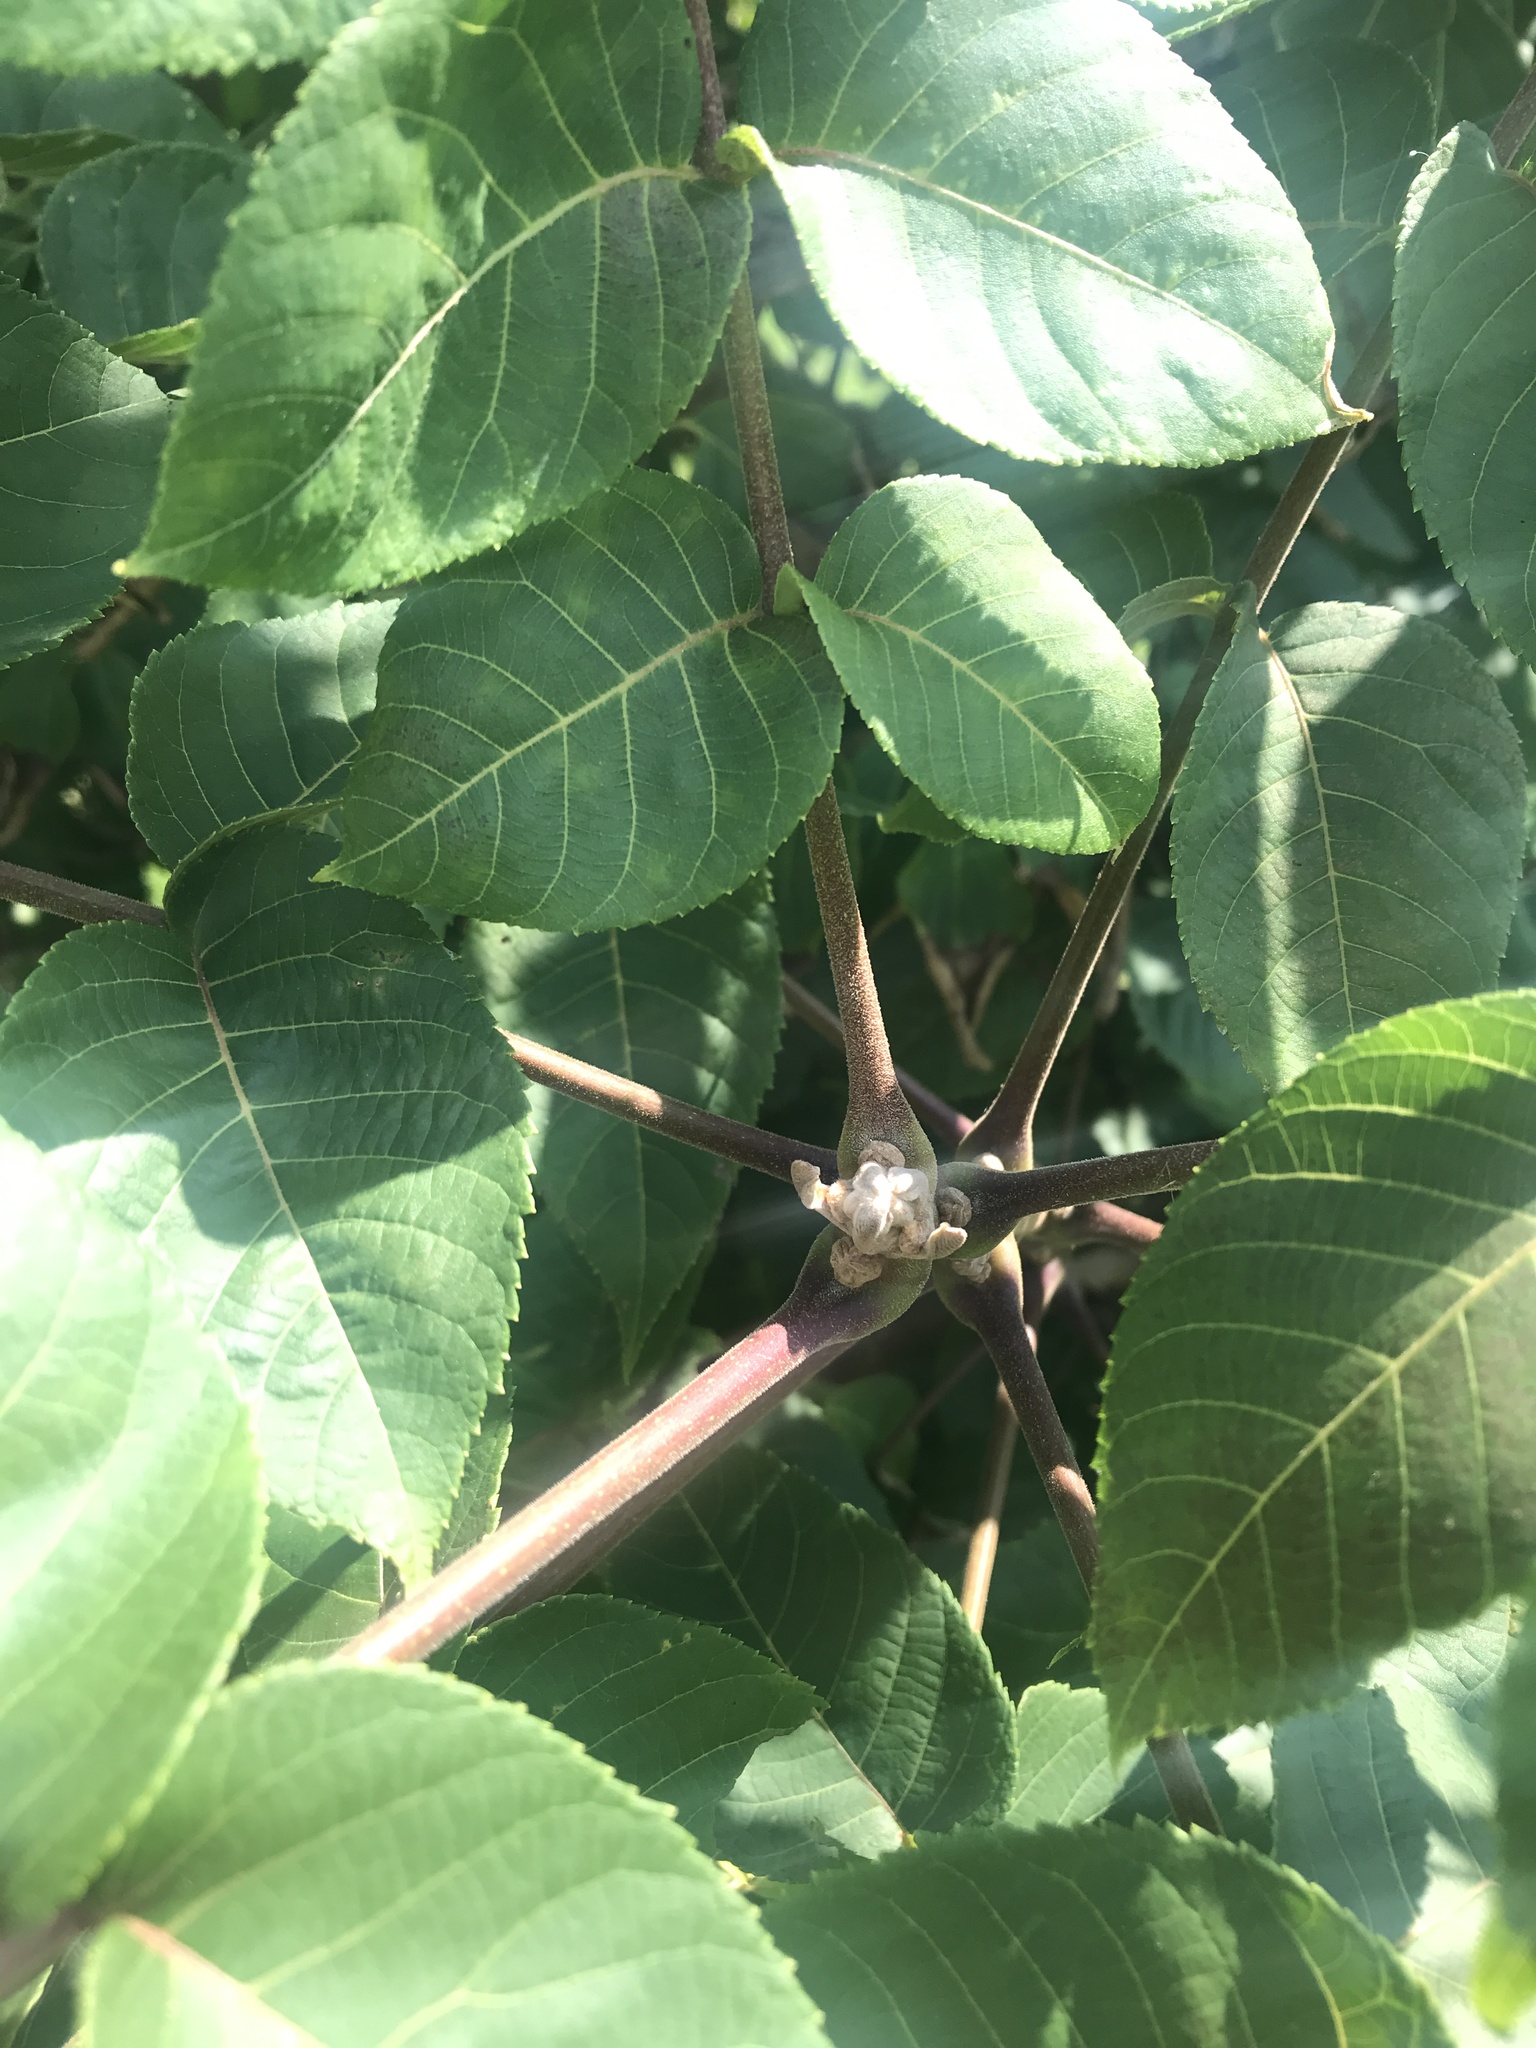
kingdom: Plantae
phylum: Tracheophyta
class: Magnoliopsida
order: Fagales
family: Juglandaceae
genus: Juglans
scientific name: Juglans nigra
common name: Black walnut
